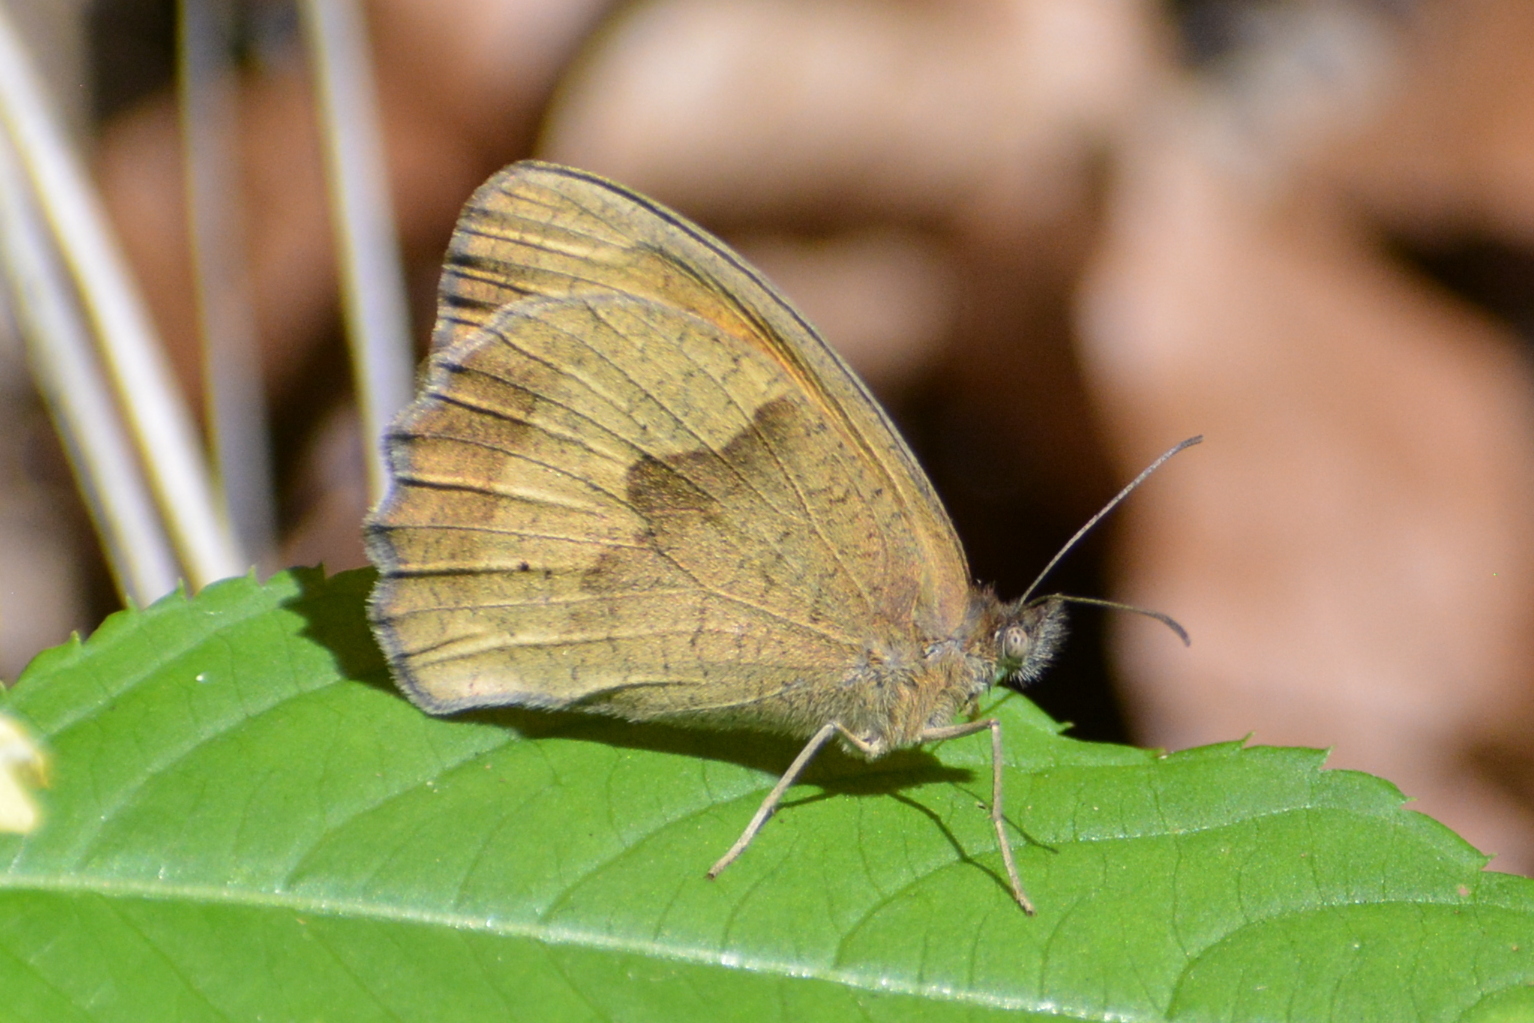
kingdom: Animalia
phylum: Arthropoda
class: Insecta
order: Lepidoptera
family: Nymphalidae
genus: Maniola
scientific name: Maniola jurtina
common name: Meadow brown
